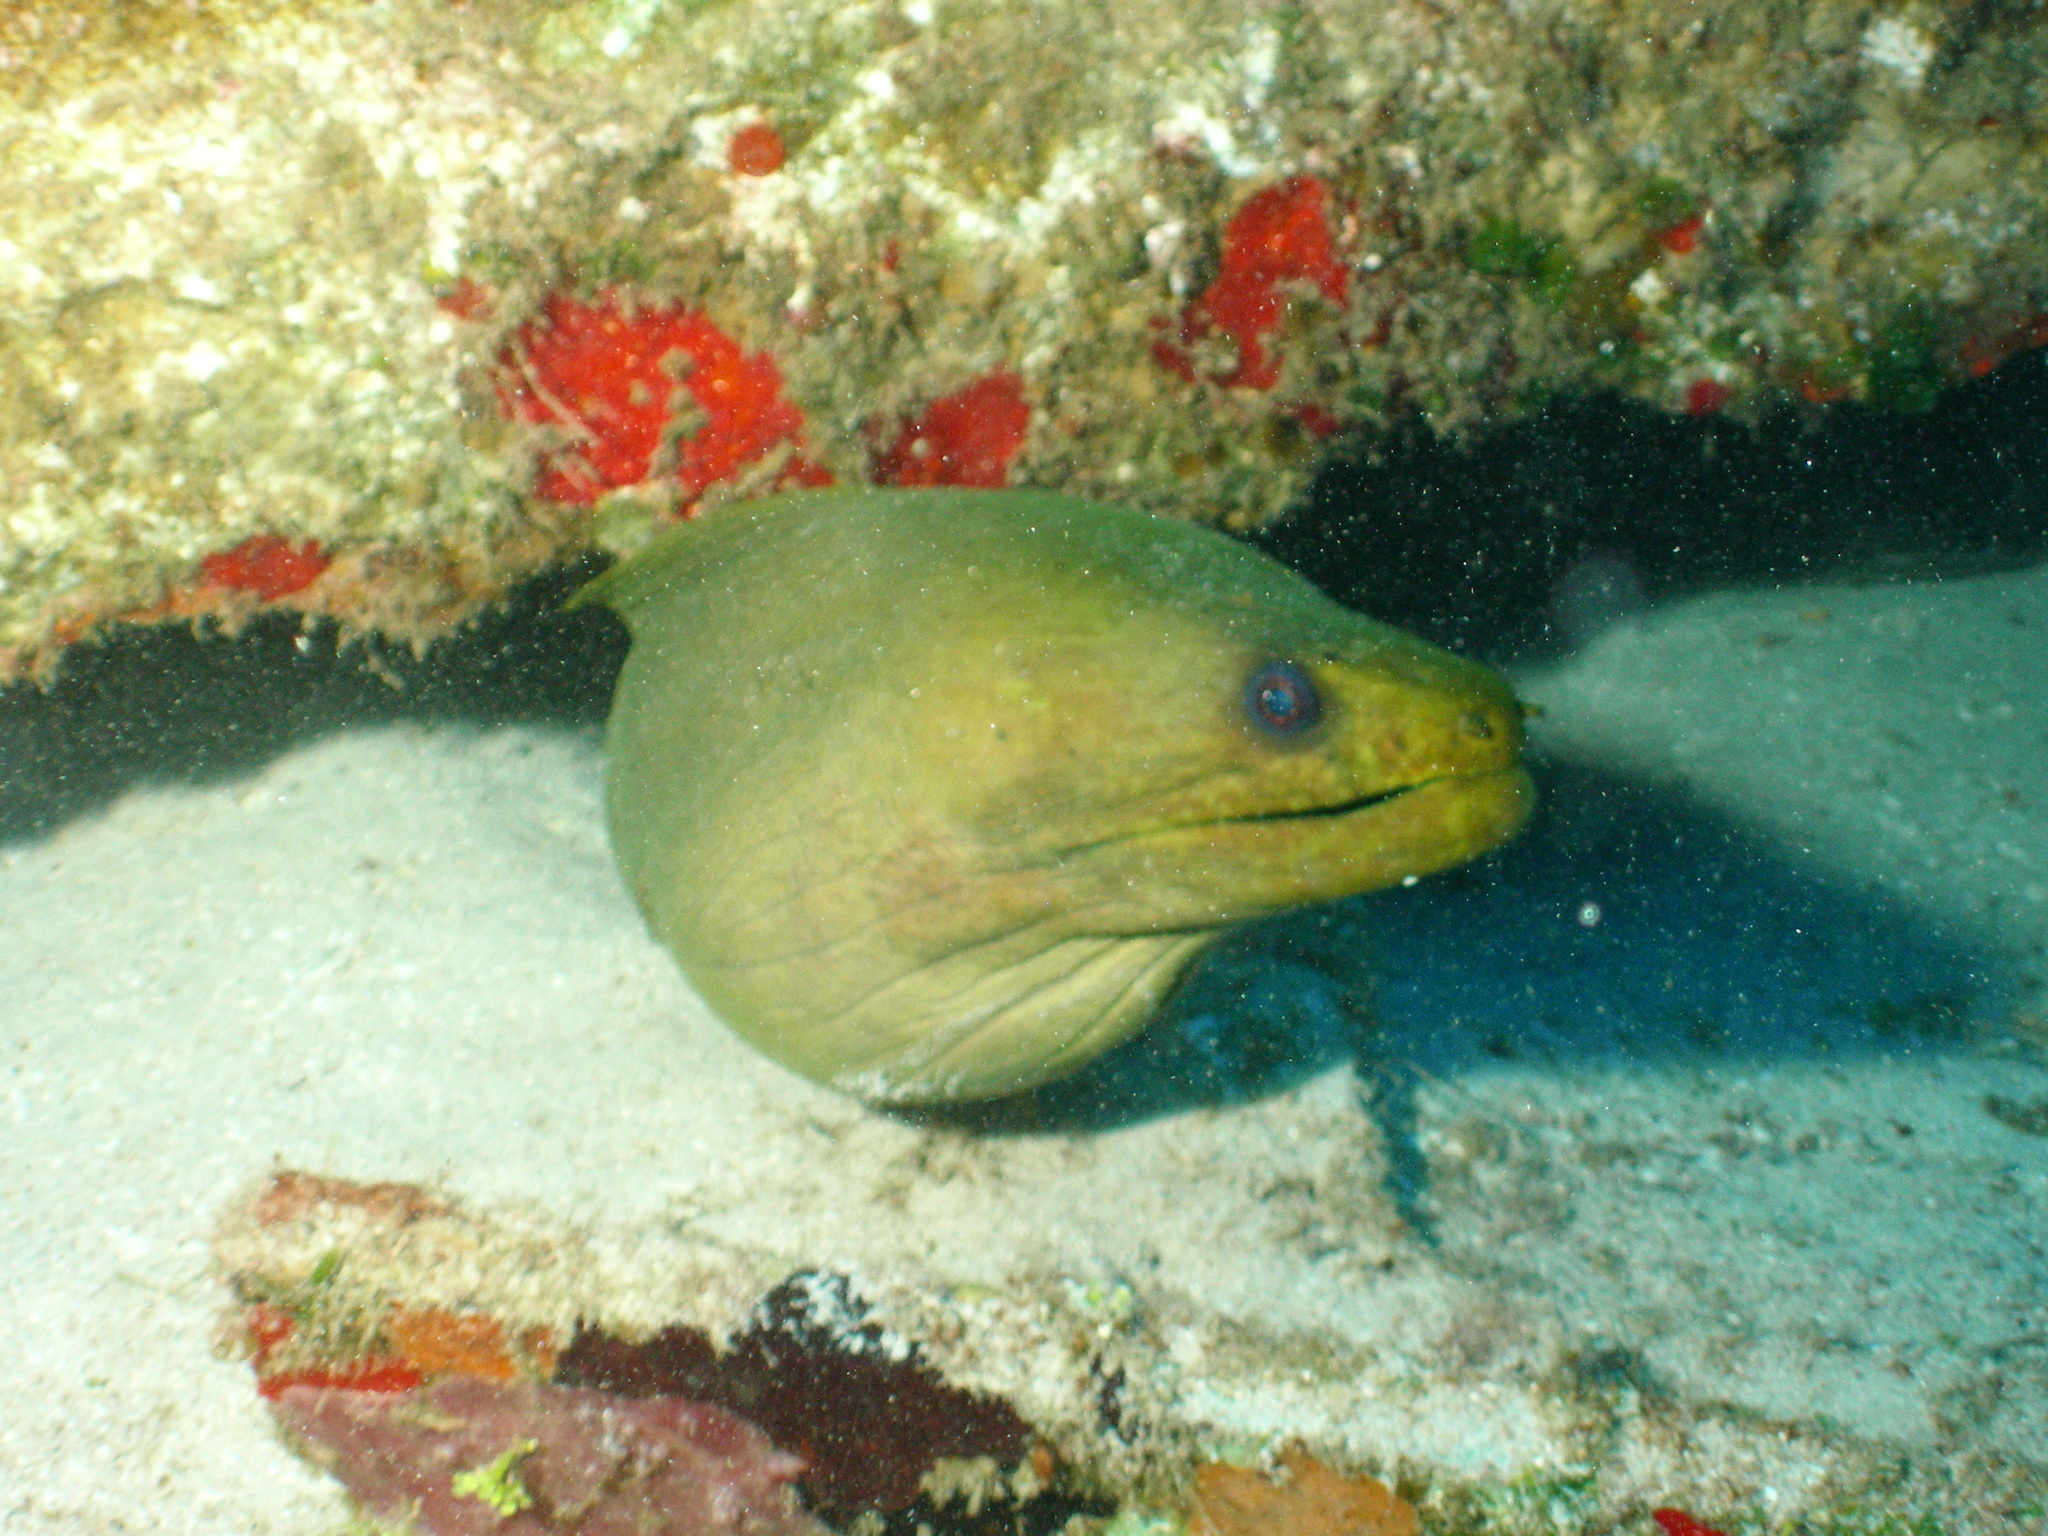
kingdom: Animalia
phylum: Chordata
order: Anguilliformes
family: Muraenidae
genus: Gymnothorax
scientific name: Gymnothorax funebris
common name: Green moray
